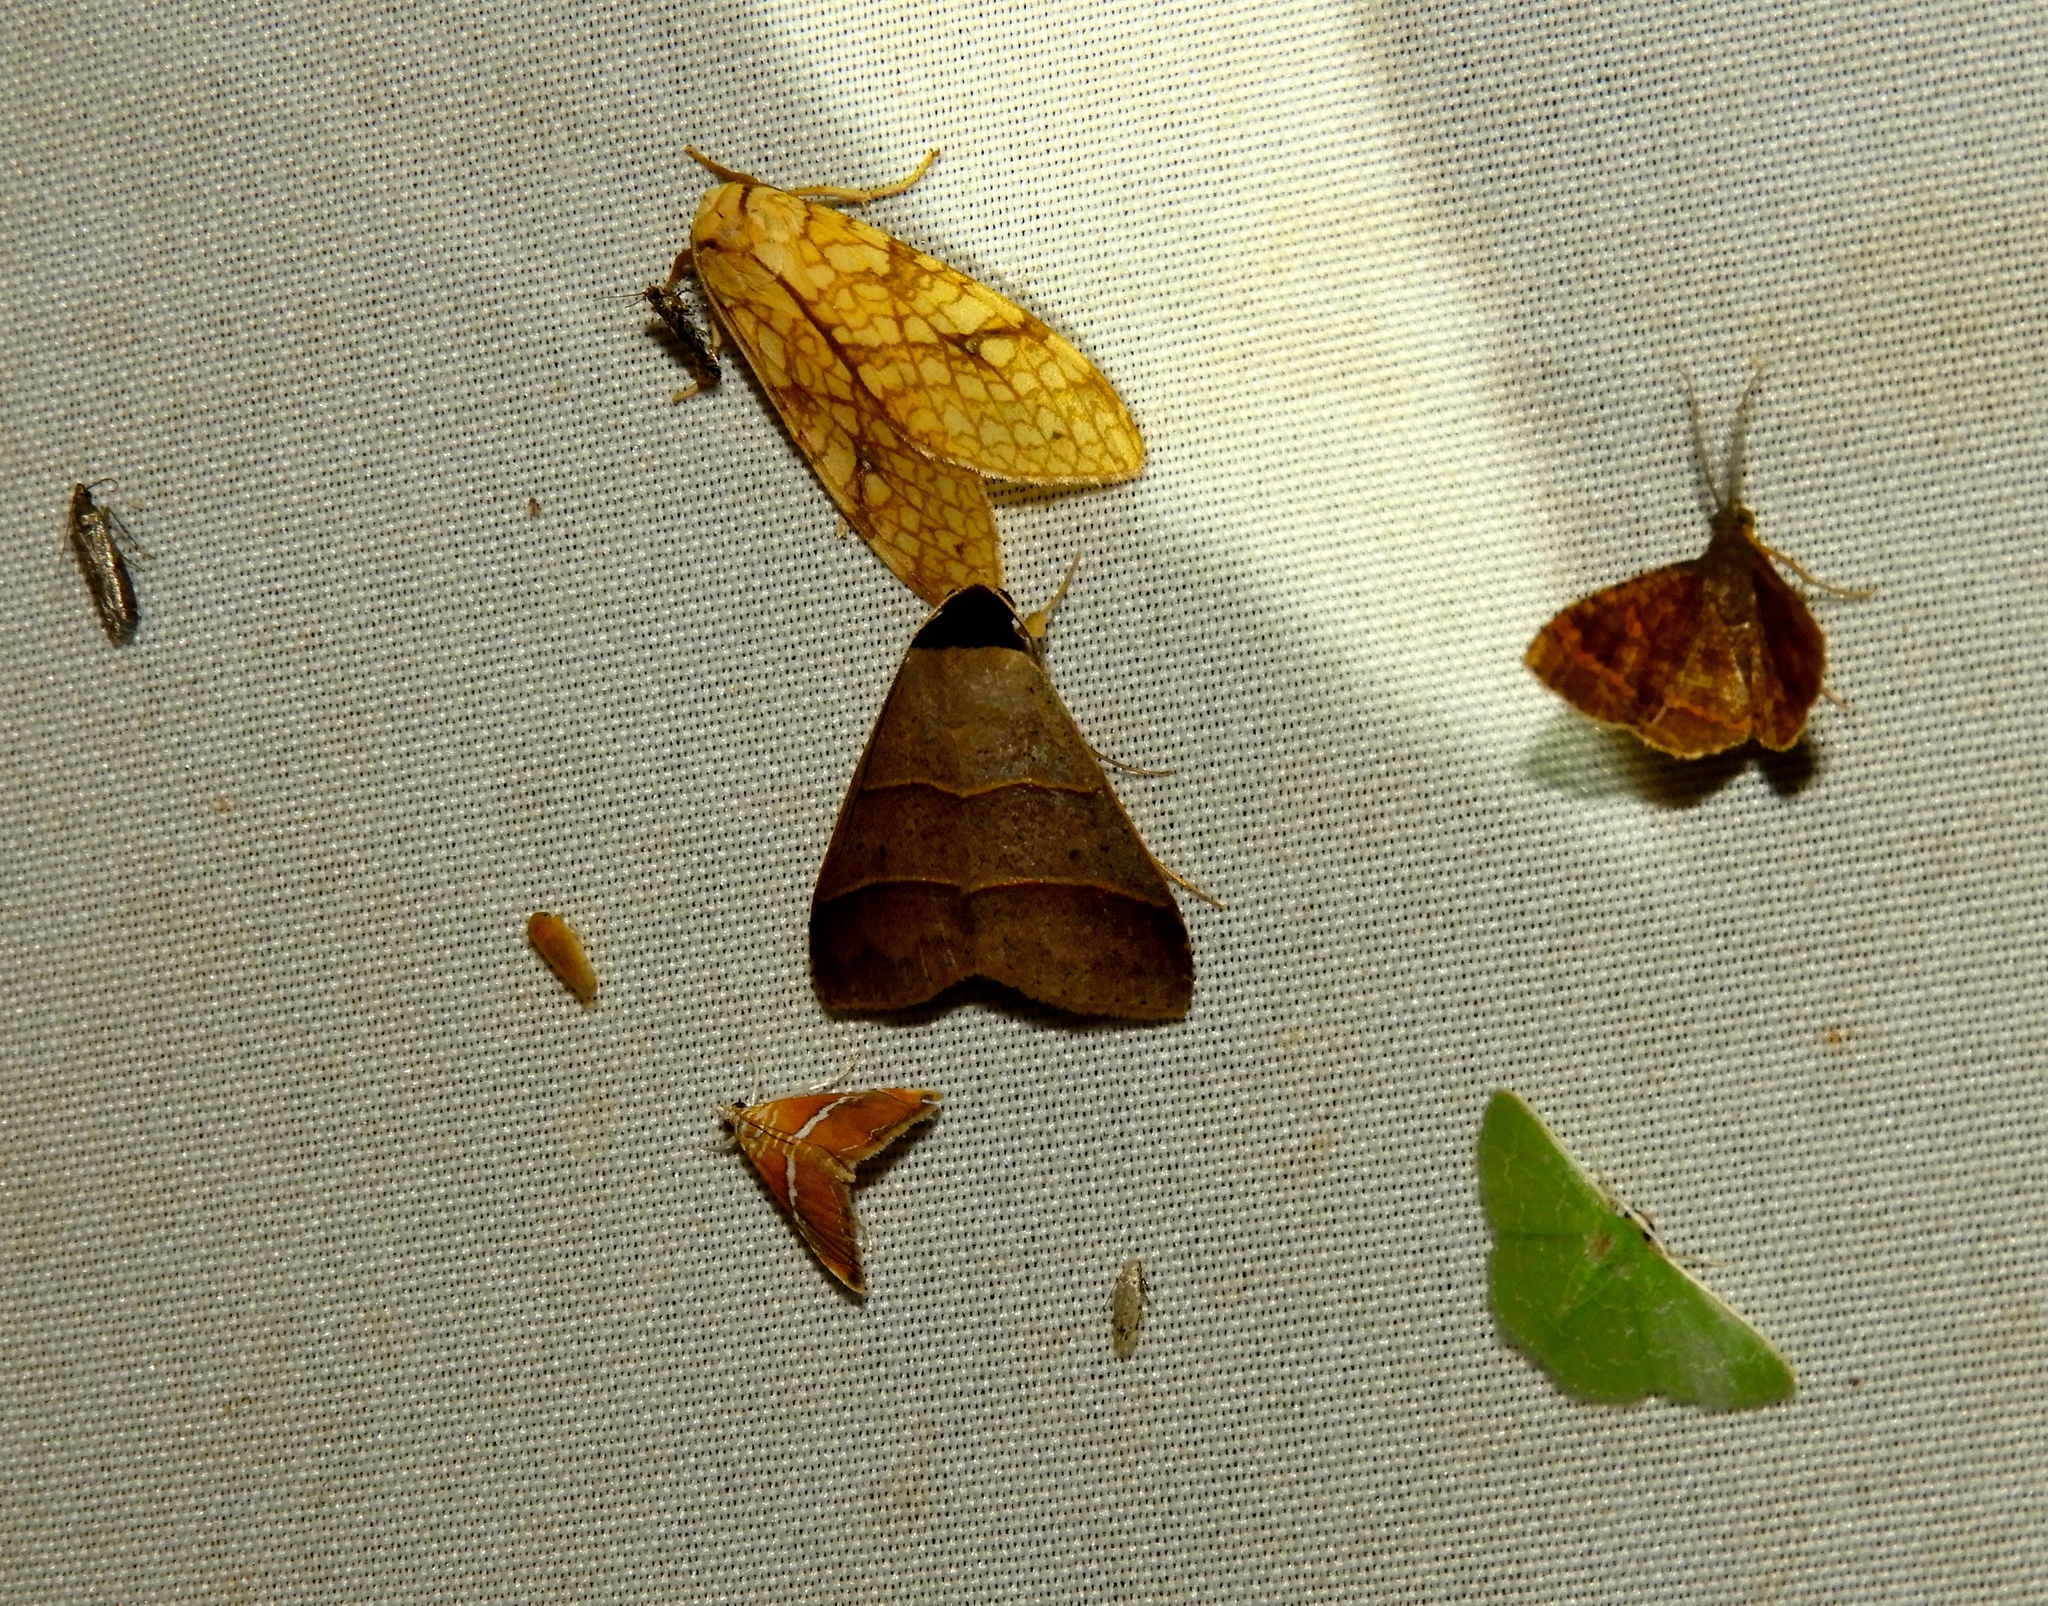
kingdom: Animalia
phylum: Arthropoda
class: Insecta
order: Lepidoptera
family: Erebidae
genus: Lophocampa
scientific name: Lophocampa annulosa
